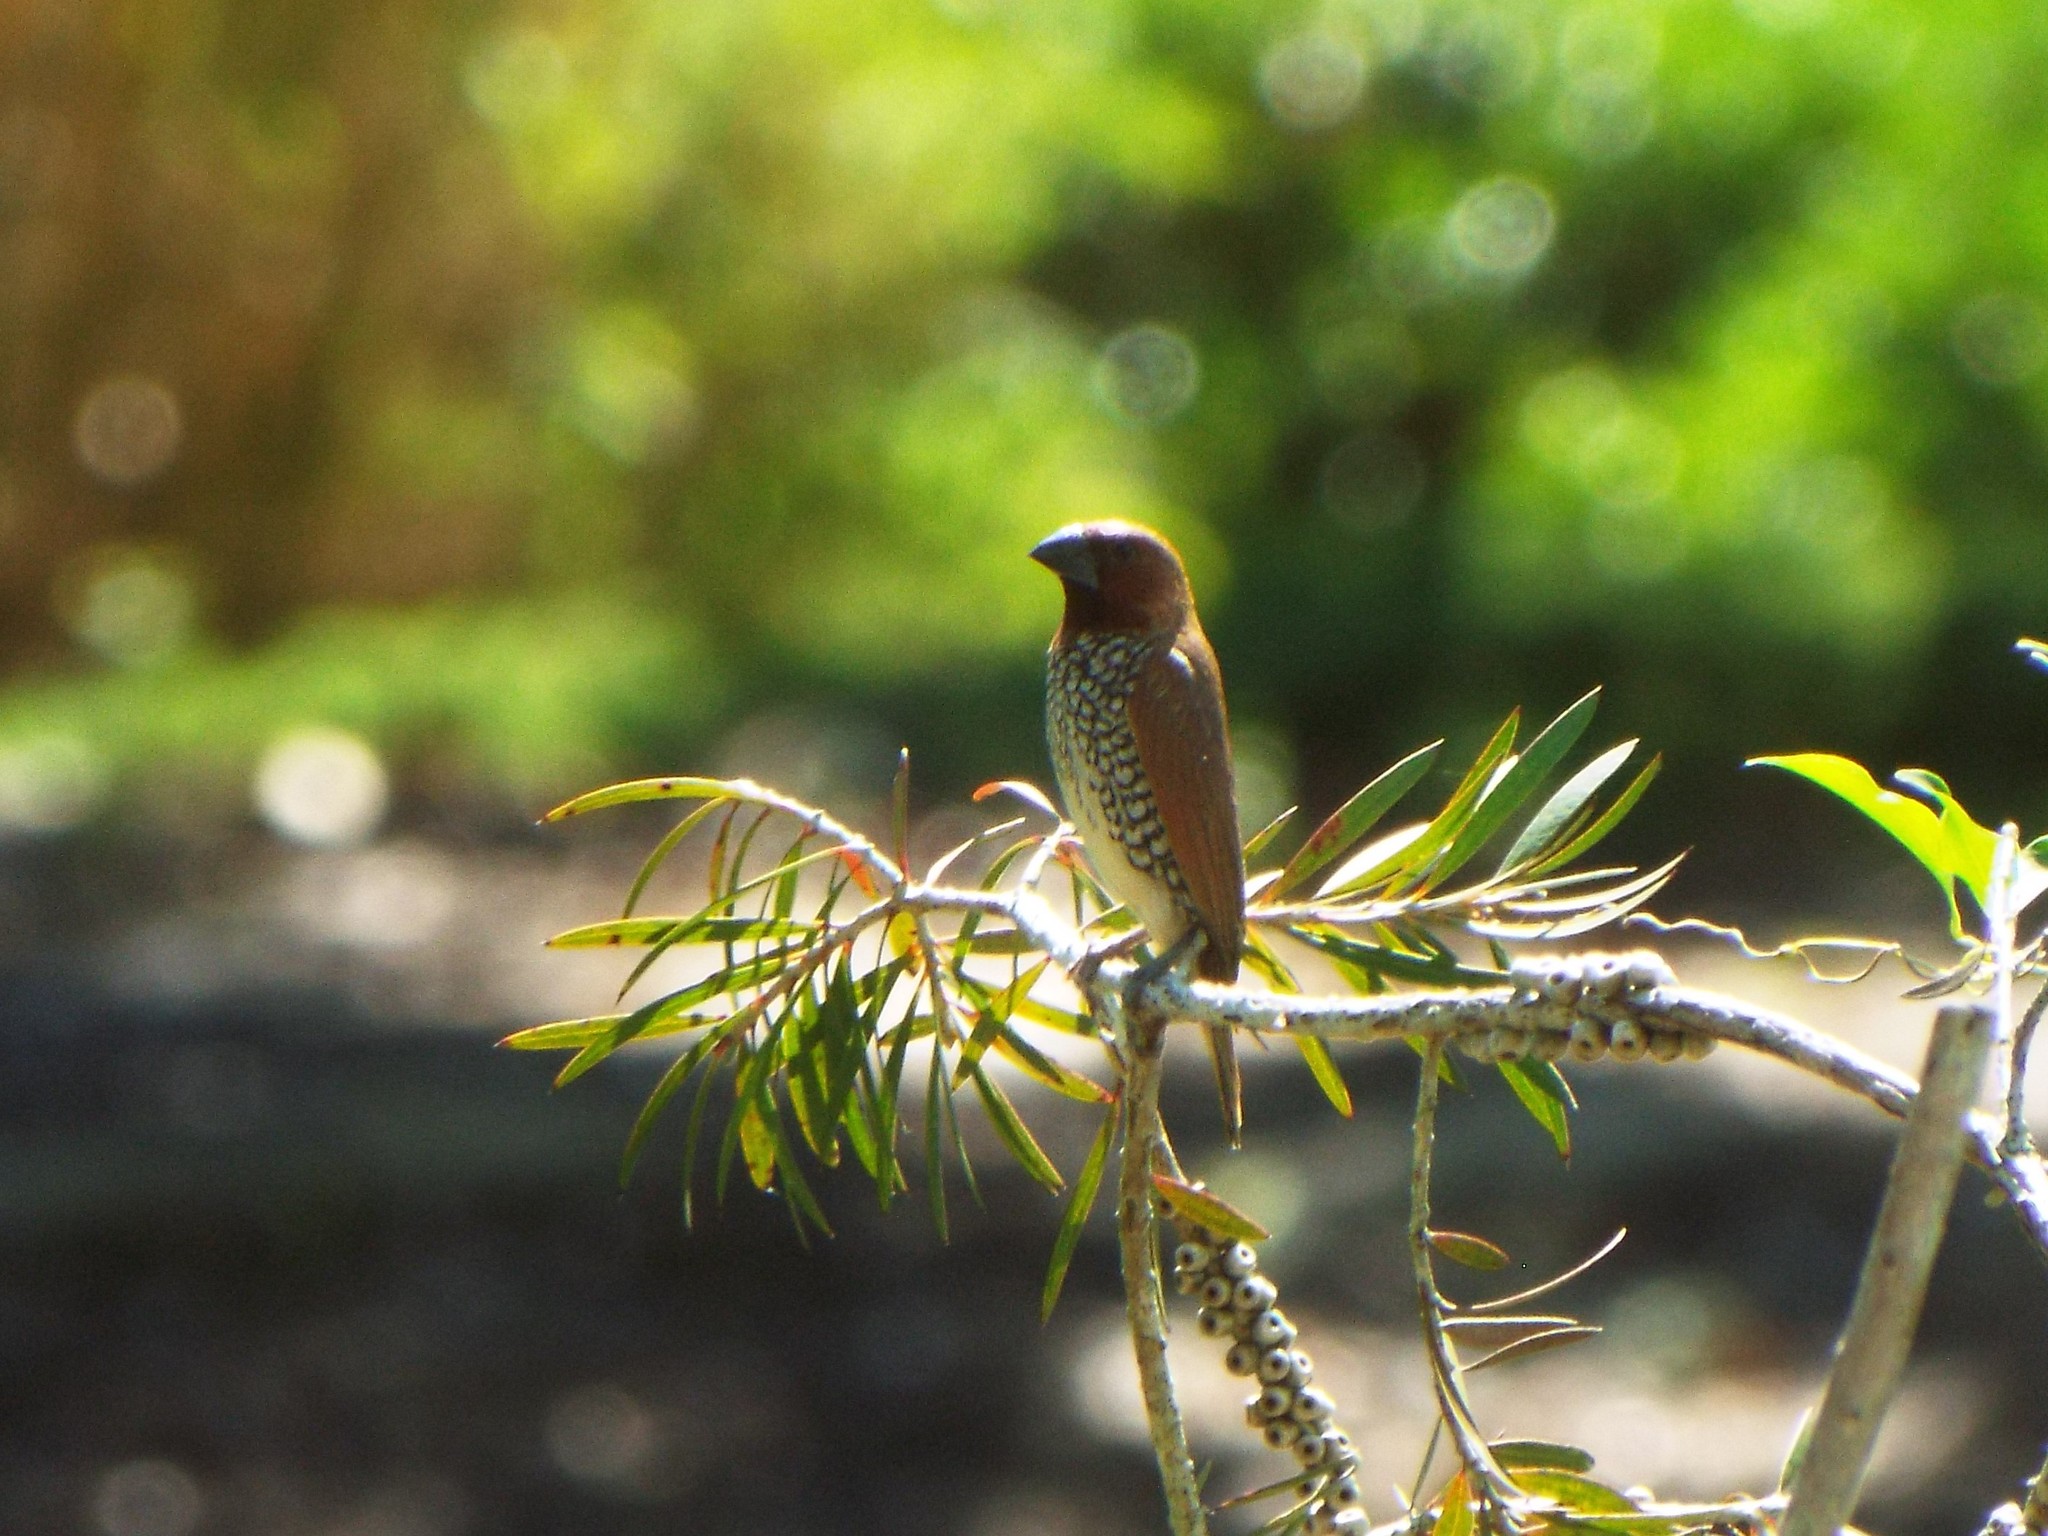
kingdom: Animalia
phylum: Chordata
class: Aves
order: Passeriformes
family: Estrildidae
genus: Lonchura
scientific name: Lonchura punctulata
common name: Scaly-breasted munia
